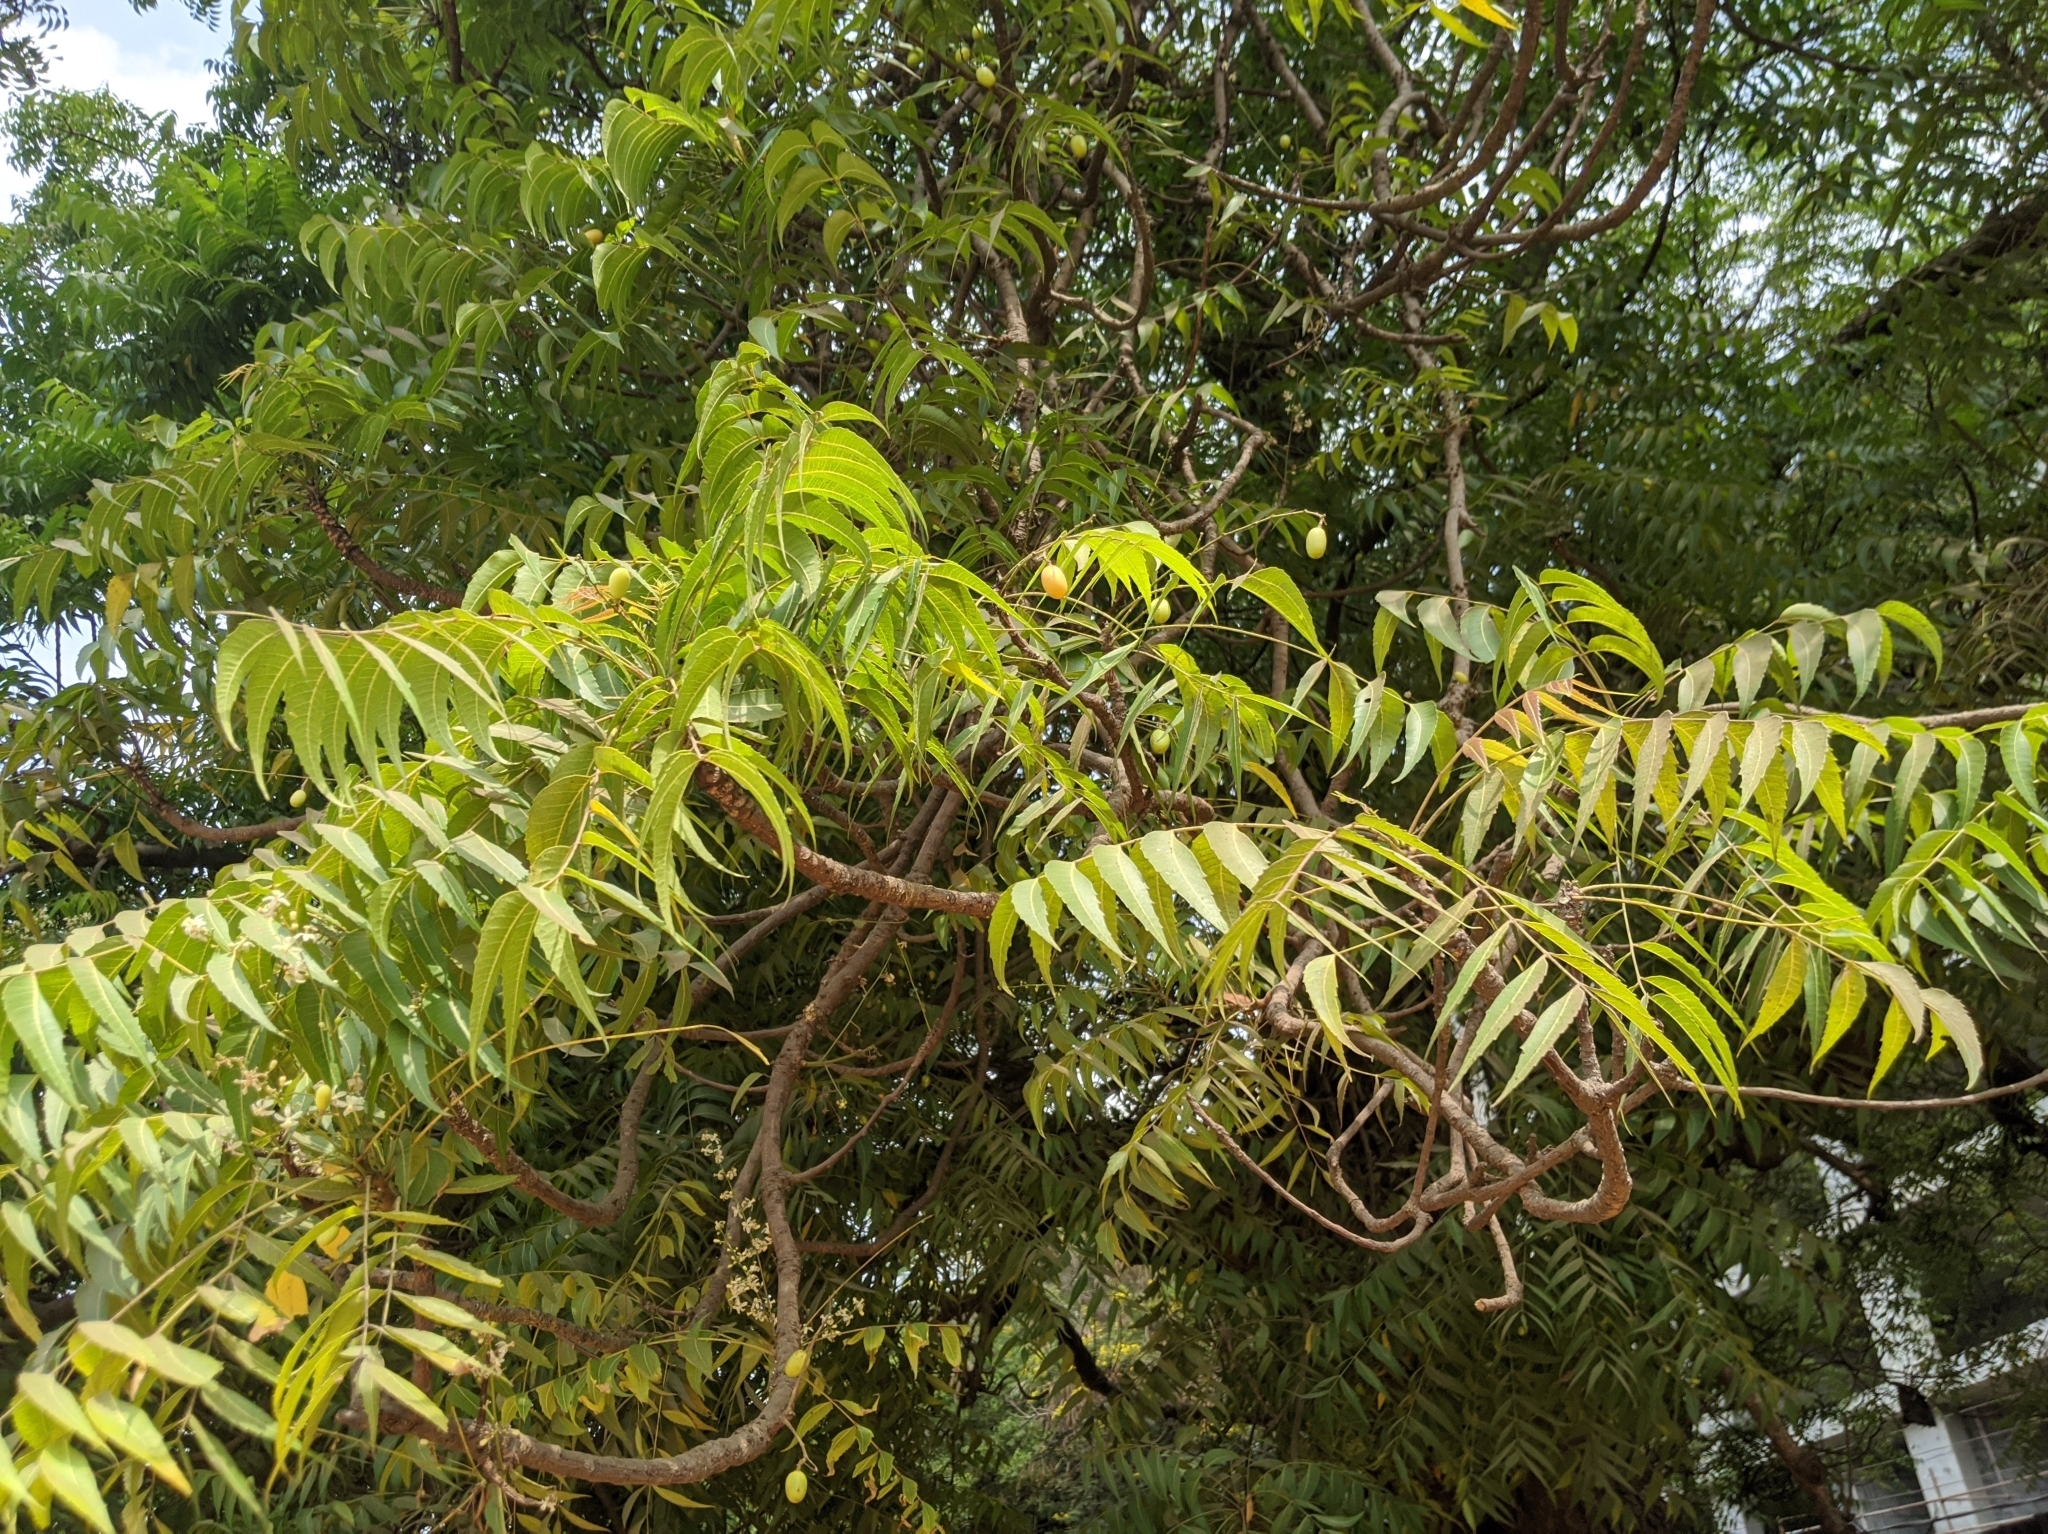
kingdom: Plantae
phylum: Tracheophyta
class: Magnoliopsida
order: Sapindales
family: Meliaceae
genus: Azadirachta
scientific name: Azadirachta indica
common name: Neem
